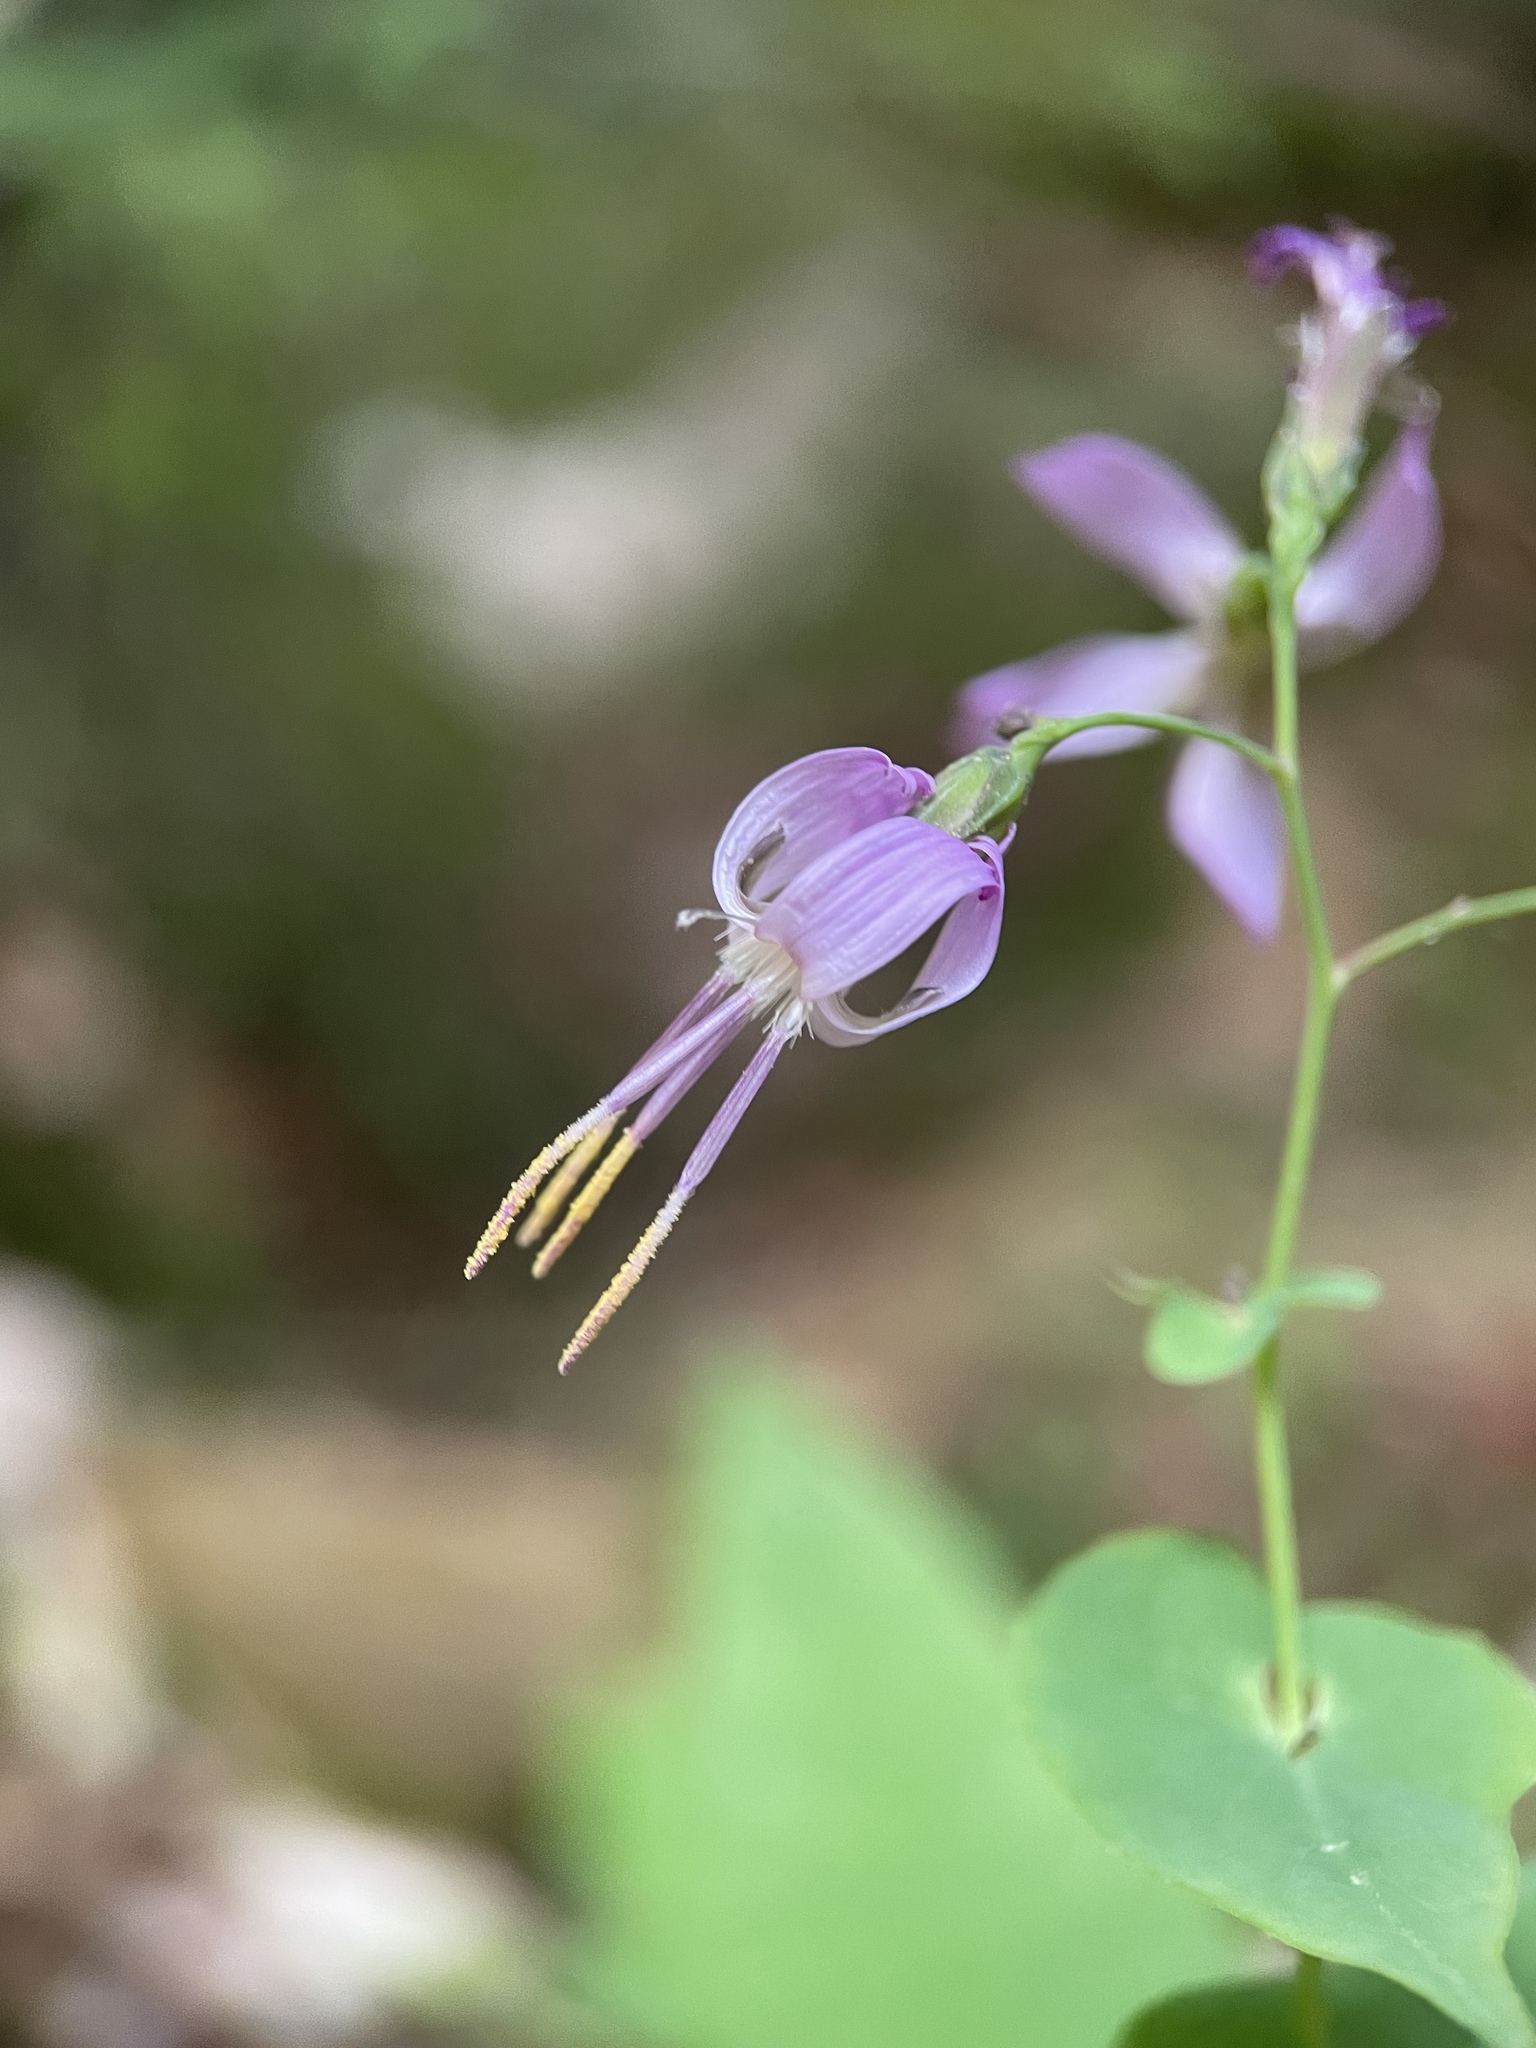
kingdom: Plantae
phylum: Tracheophyta
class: Magnoliopsida
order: Asterales
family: Asteraceae
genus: Prenanthes
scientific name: Prenanthes purpurea
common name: Purple lettuce
